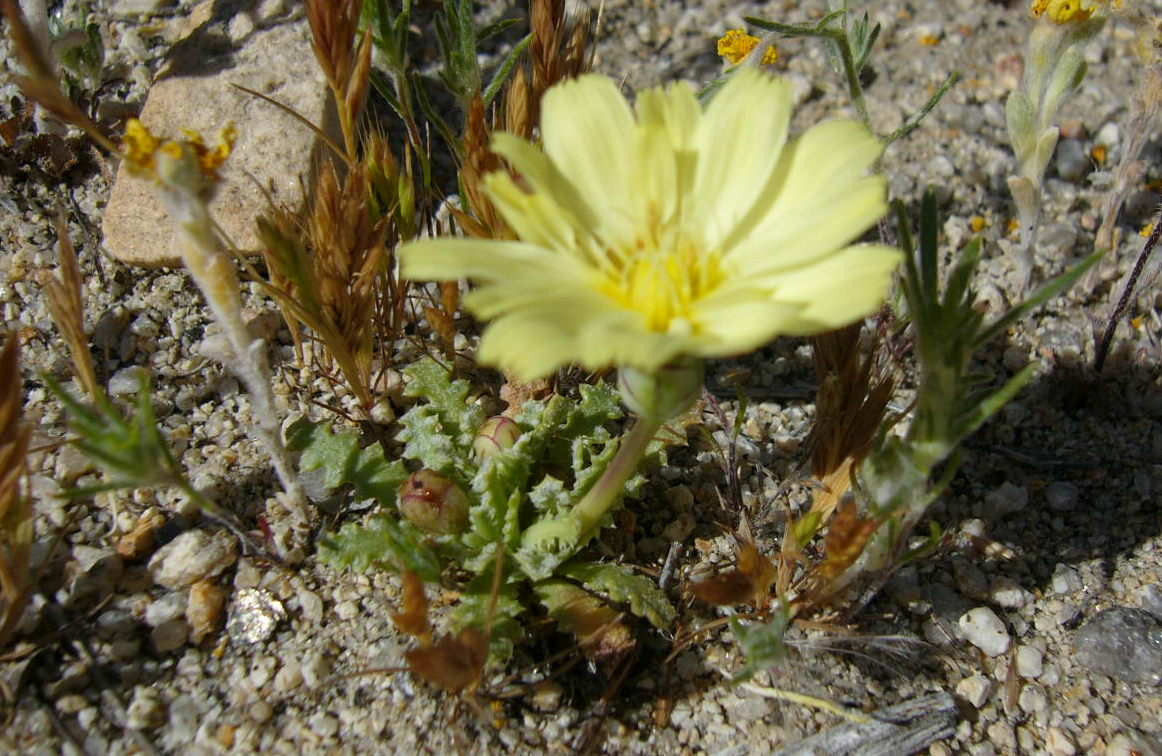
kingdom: Plantae
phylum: Tracheophyta
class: Magnoliopsida
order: Asterales
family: Asteraceae
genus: Anisocoma
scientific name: Anisocoma acaulis
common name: Scalebud
